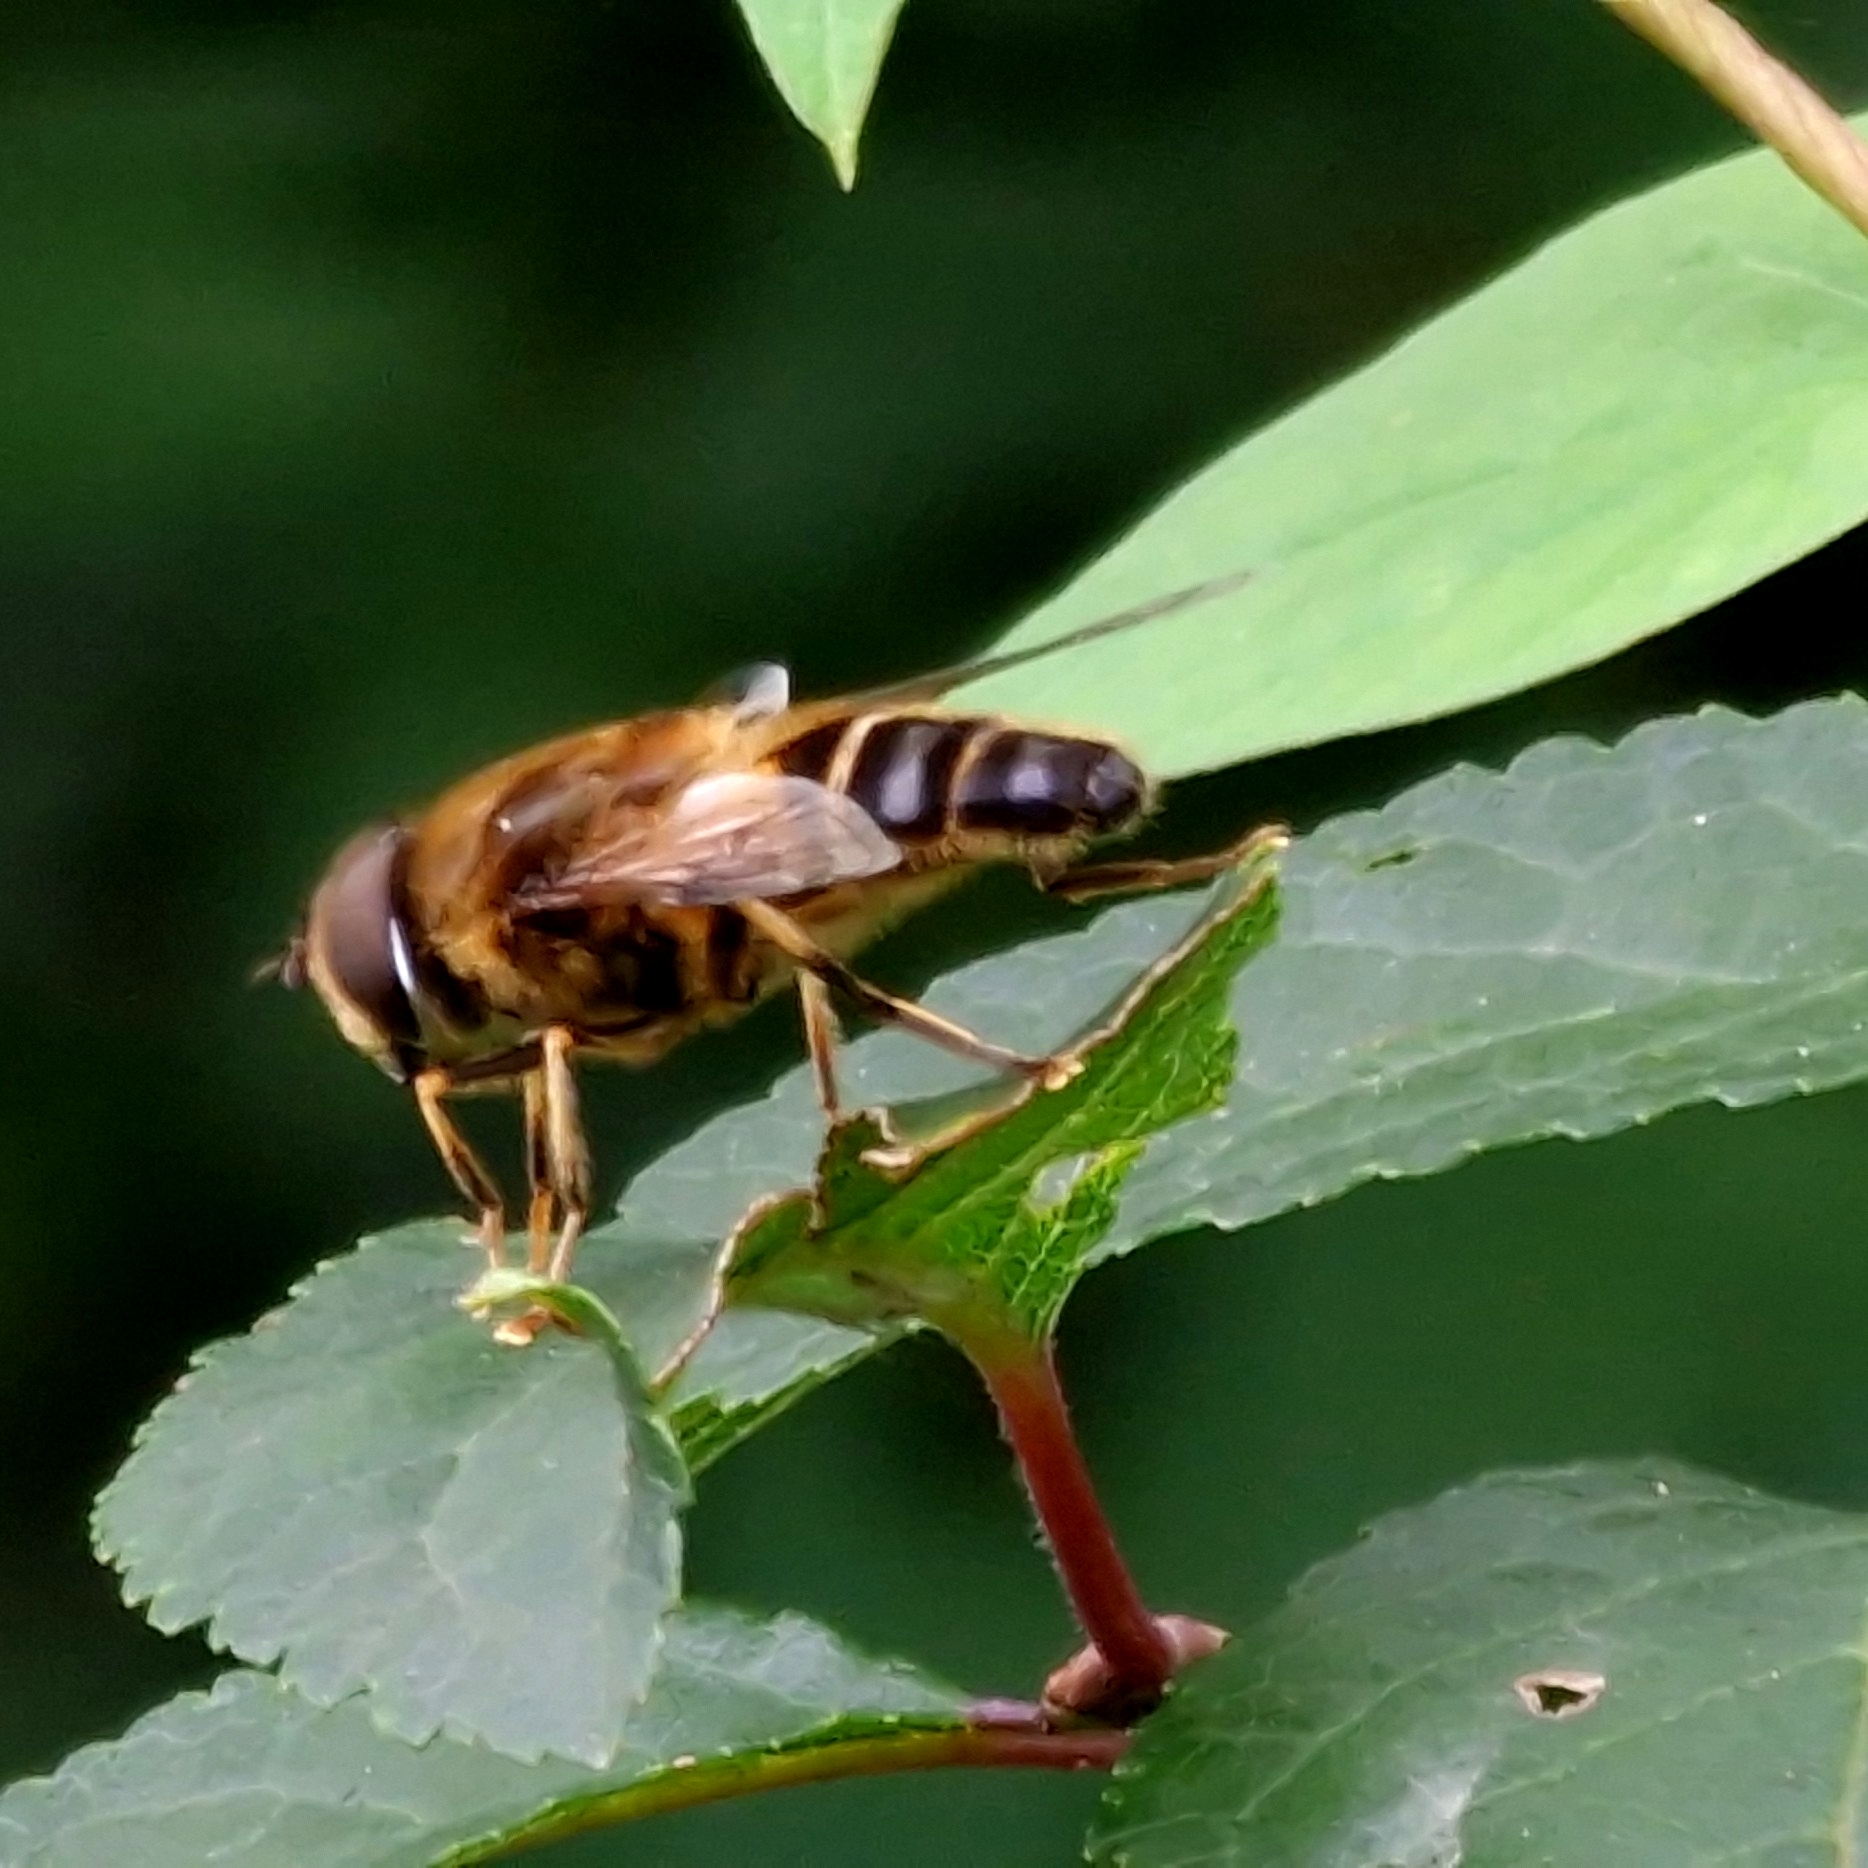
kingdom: Animalia
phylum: Arthropoda
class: Insecta
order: Diptera
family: Syrphidae
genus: Eristalis
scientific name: Eristalis pertinax
